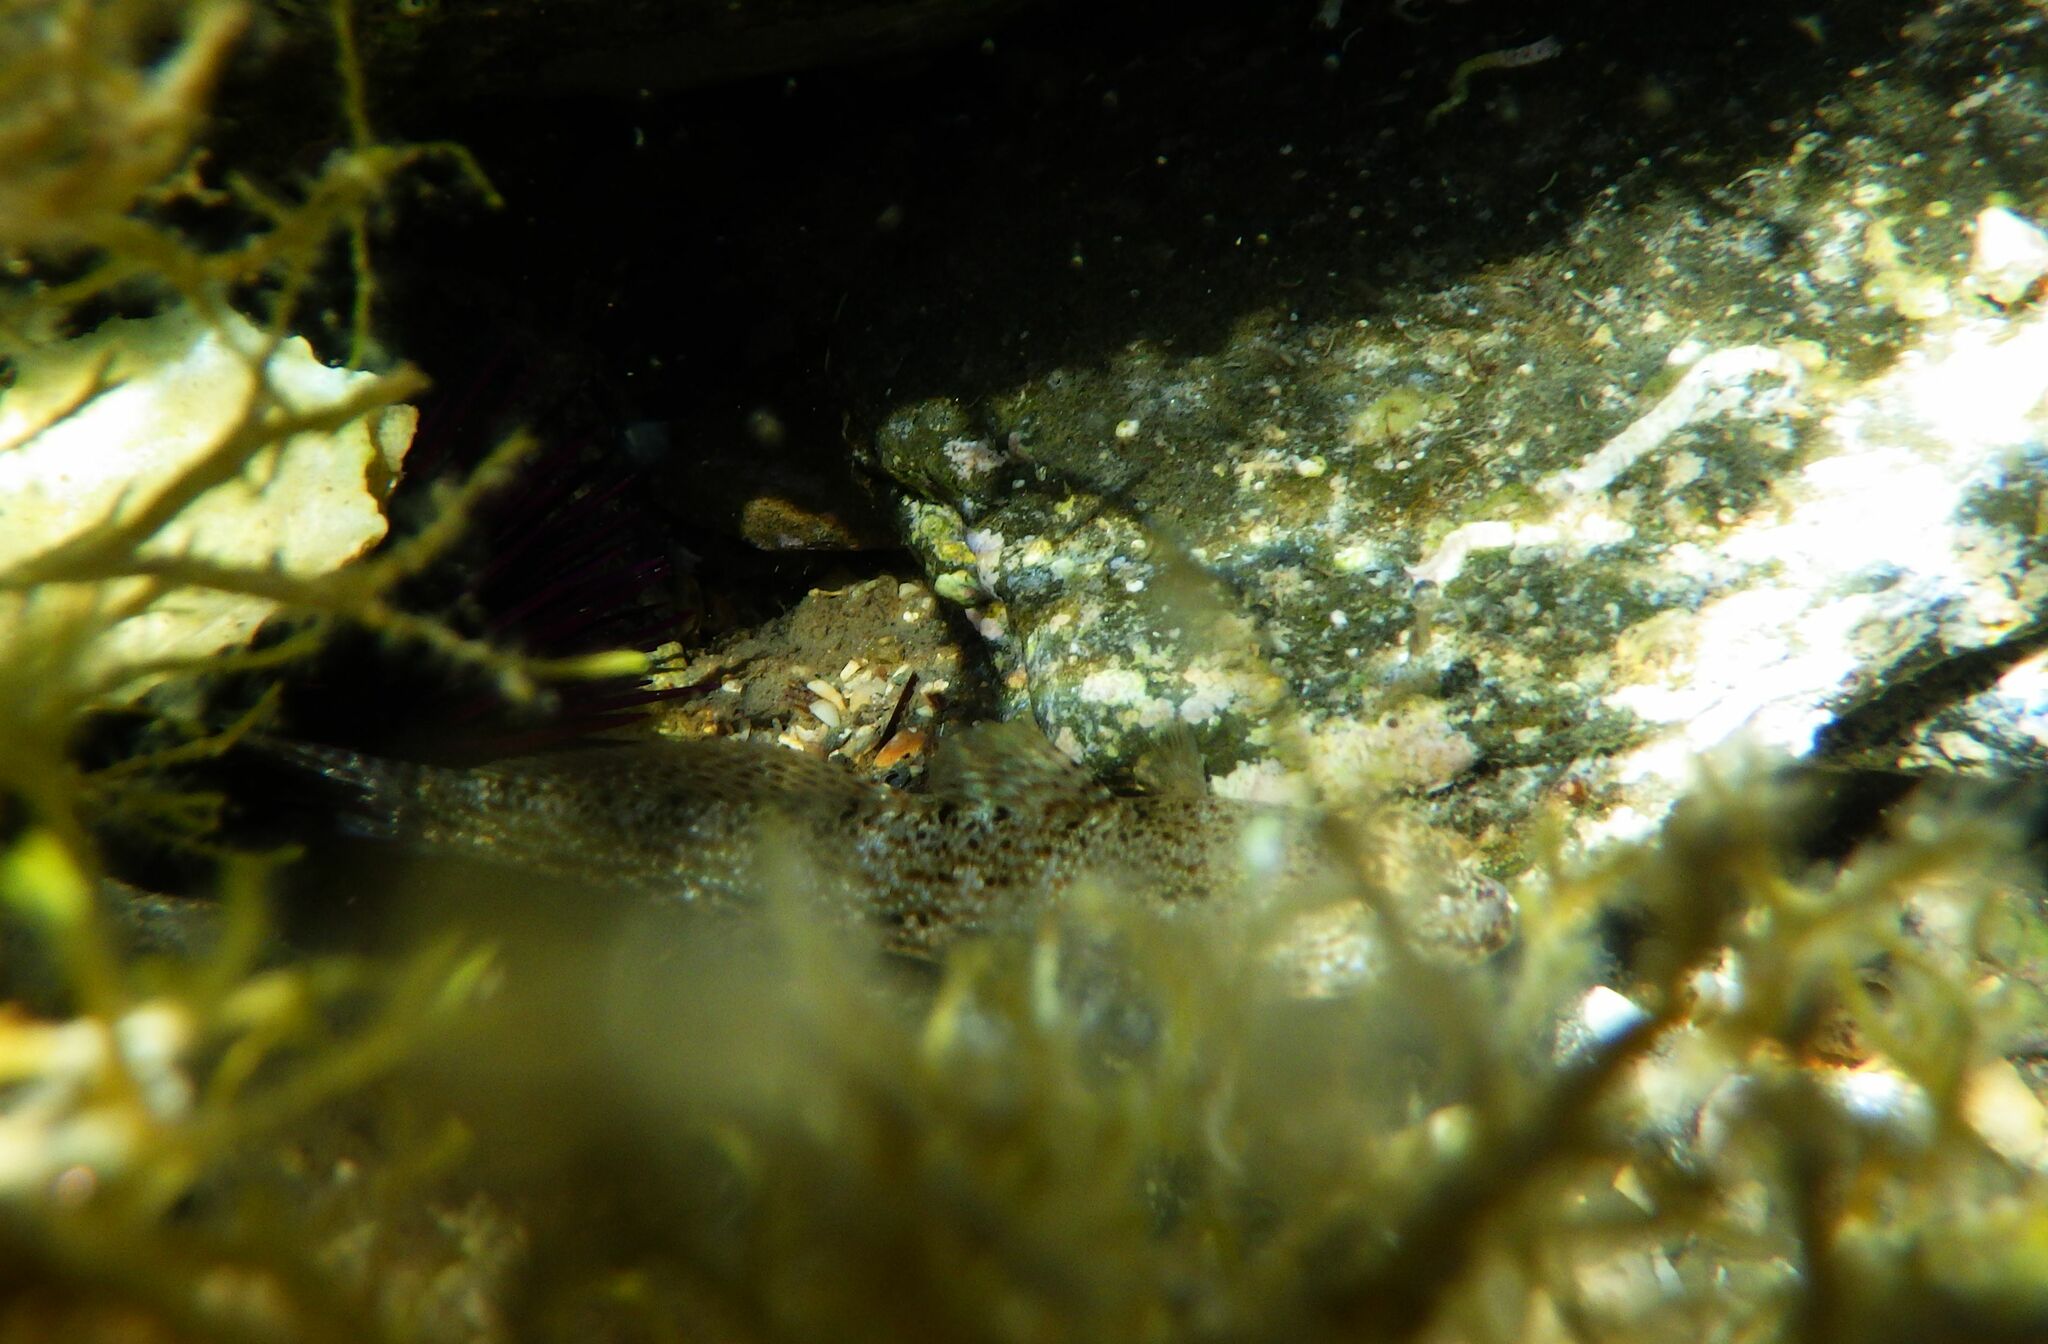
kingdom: Animalia
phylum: Chordata
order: Perciformes
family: Gobiidae
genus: Gobius
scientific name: Gobius incognitus
